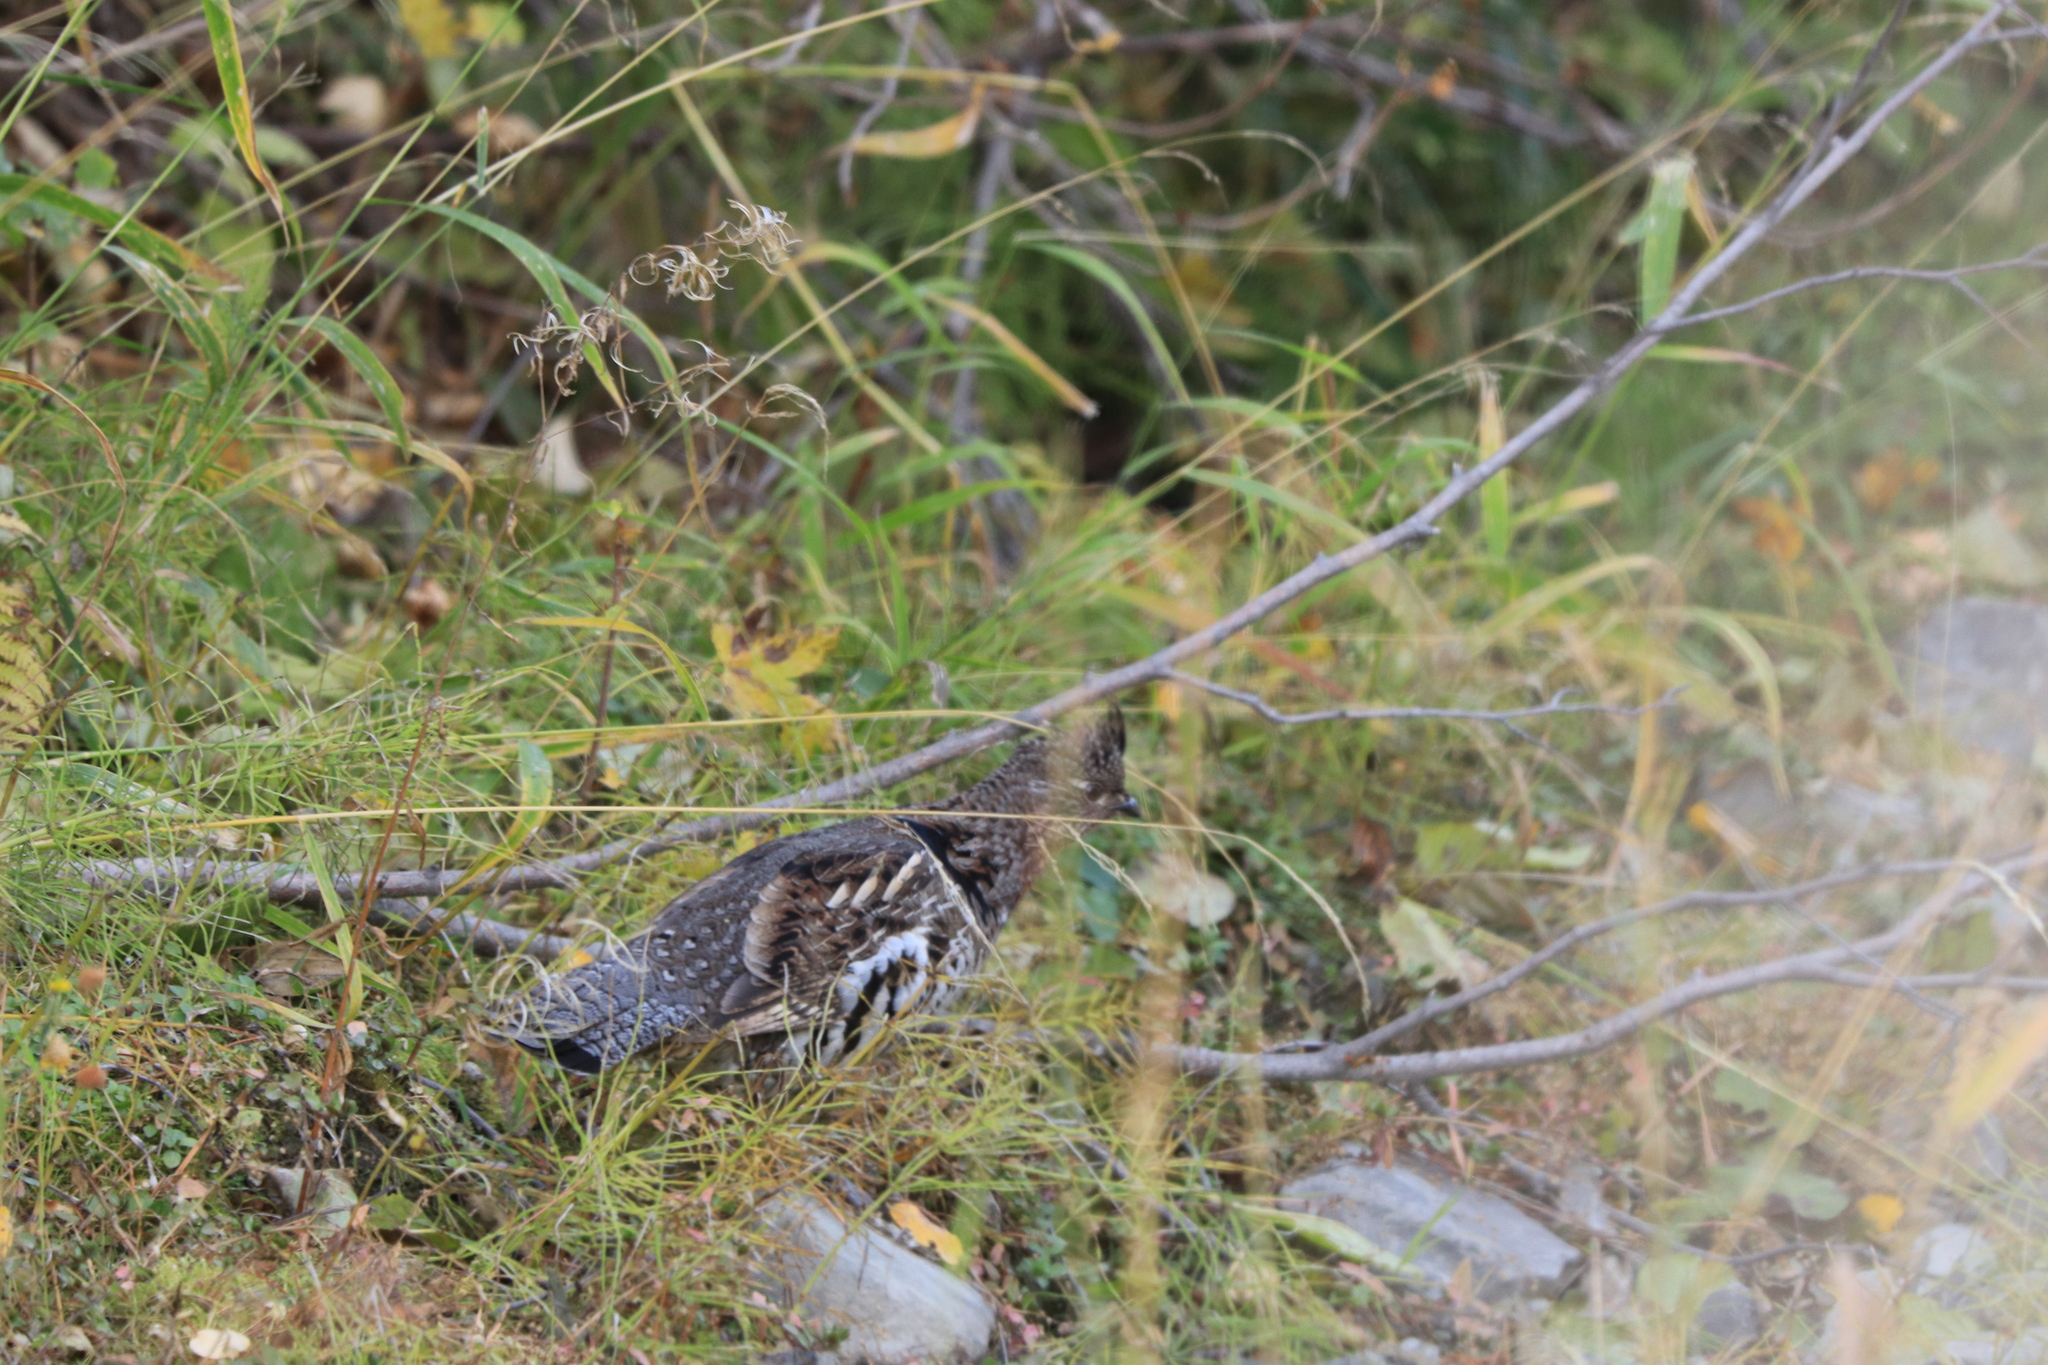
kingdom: Animalia
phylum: Chordata
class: Aves
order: Galliformes
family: Phasianidae
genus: Bonasa
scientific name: Bonasa umbellus
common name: Ruffed grouse
